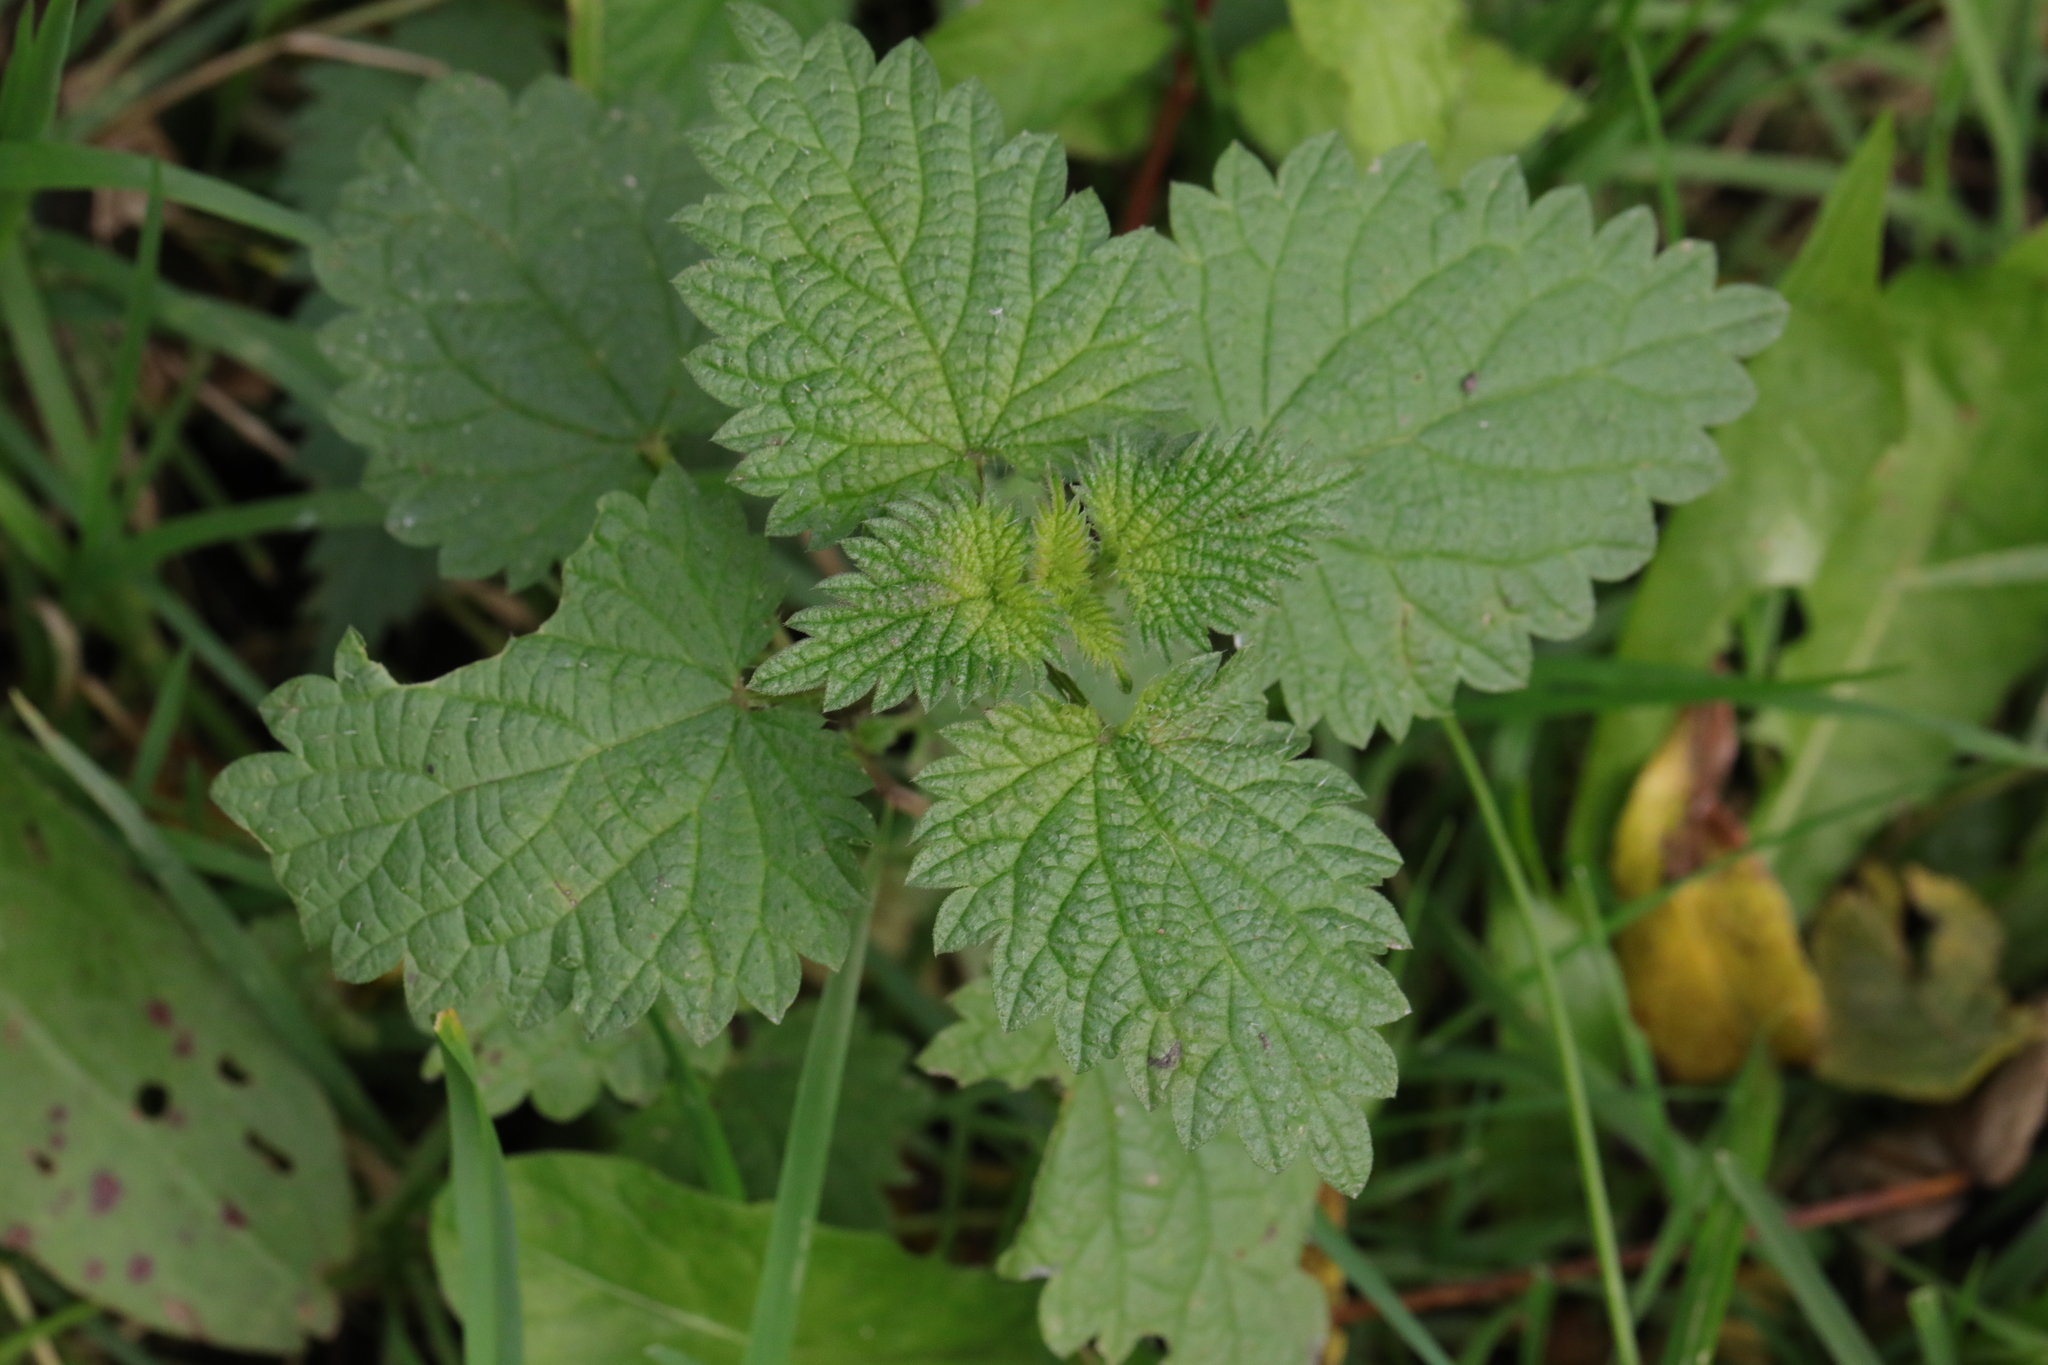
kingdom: Plantae
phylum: Tracheophyta
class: Magnoliopsida
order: Rosales
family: Urticaceae
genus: Urtica
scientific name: Urtica dioica
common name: Common nettle
